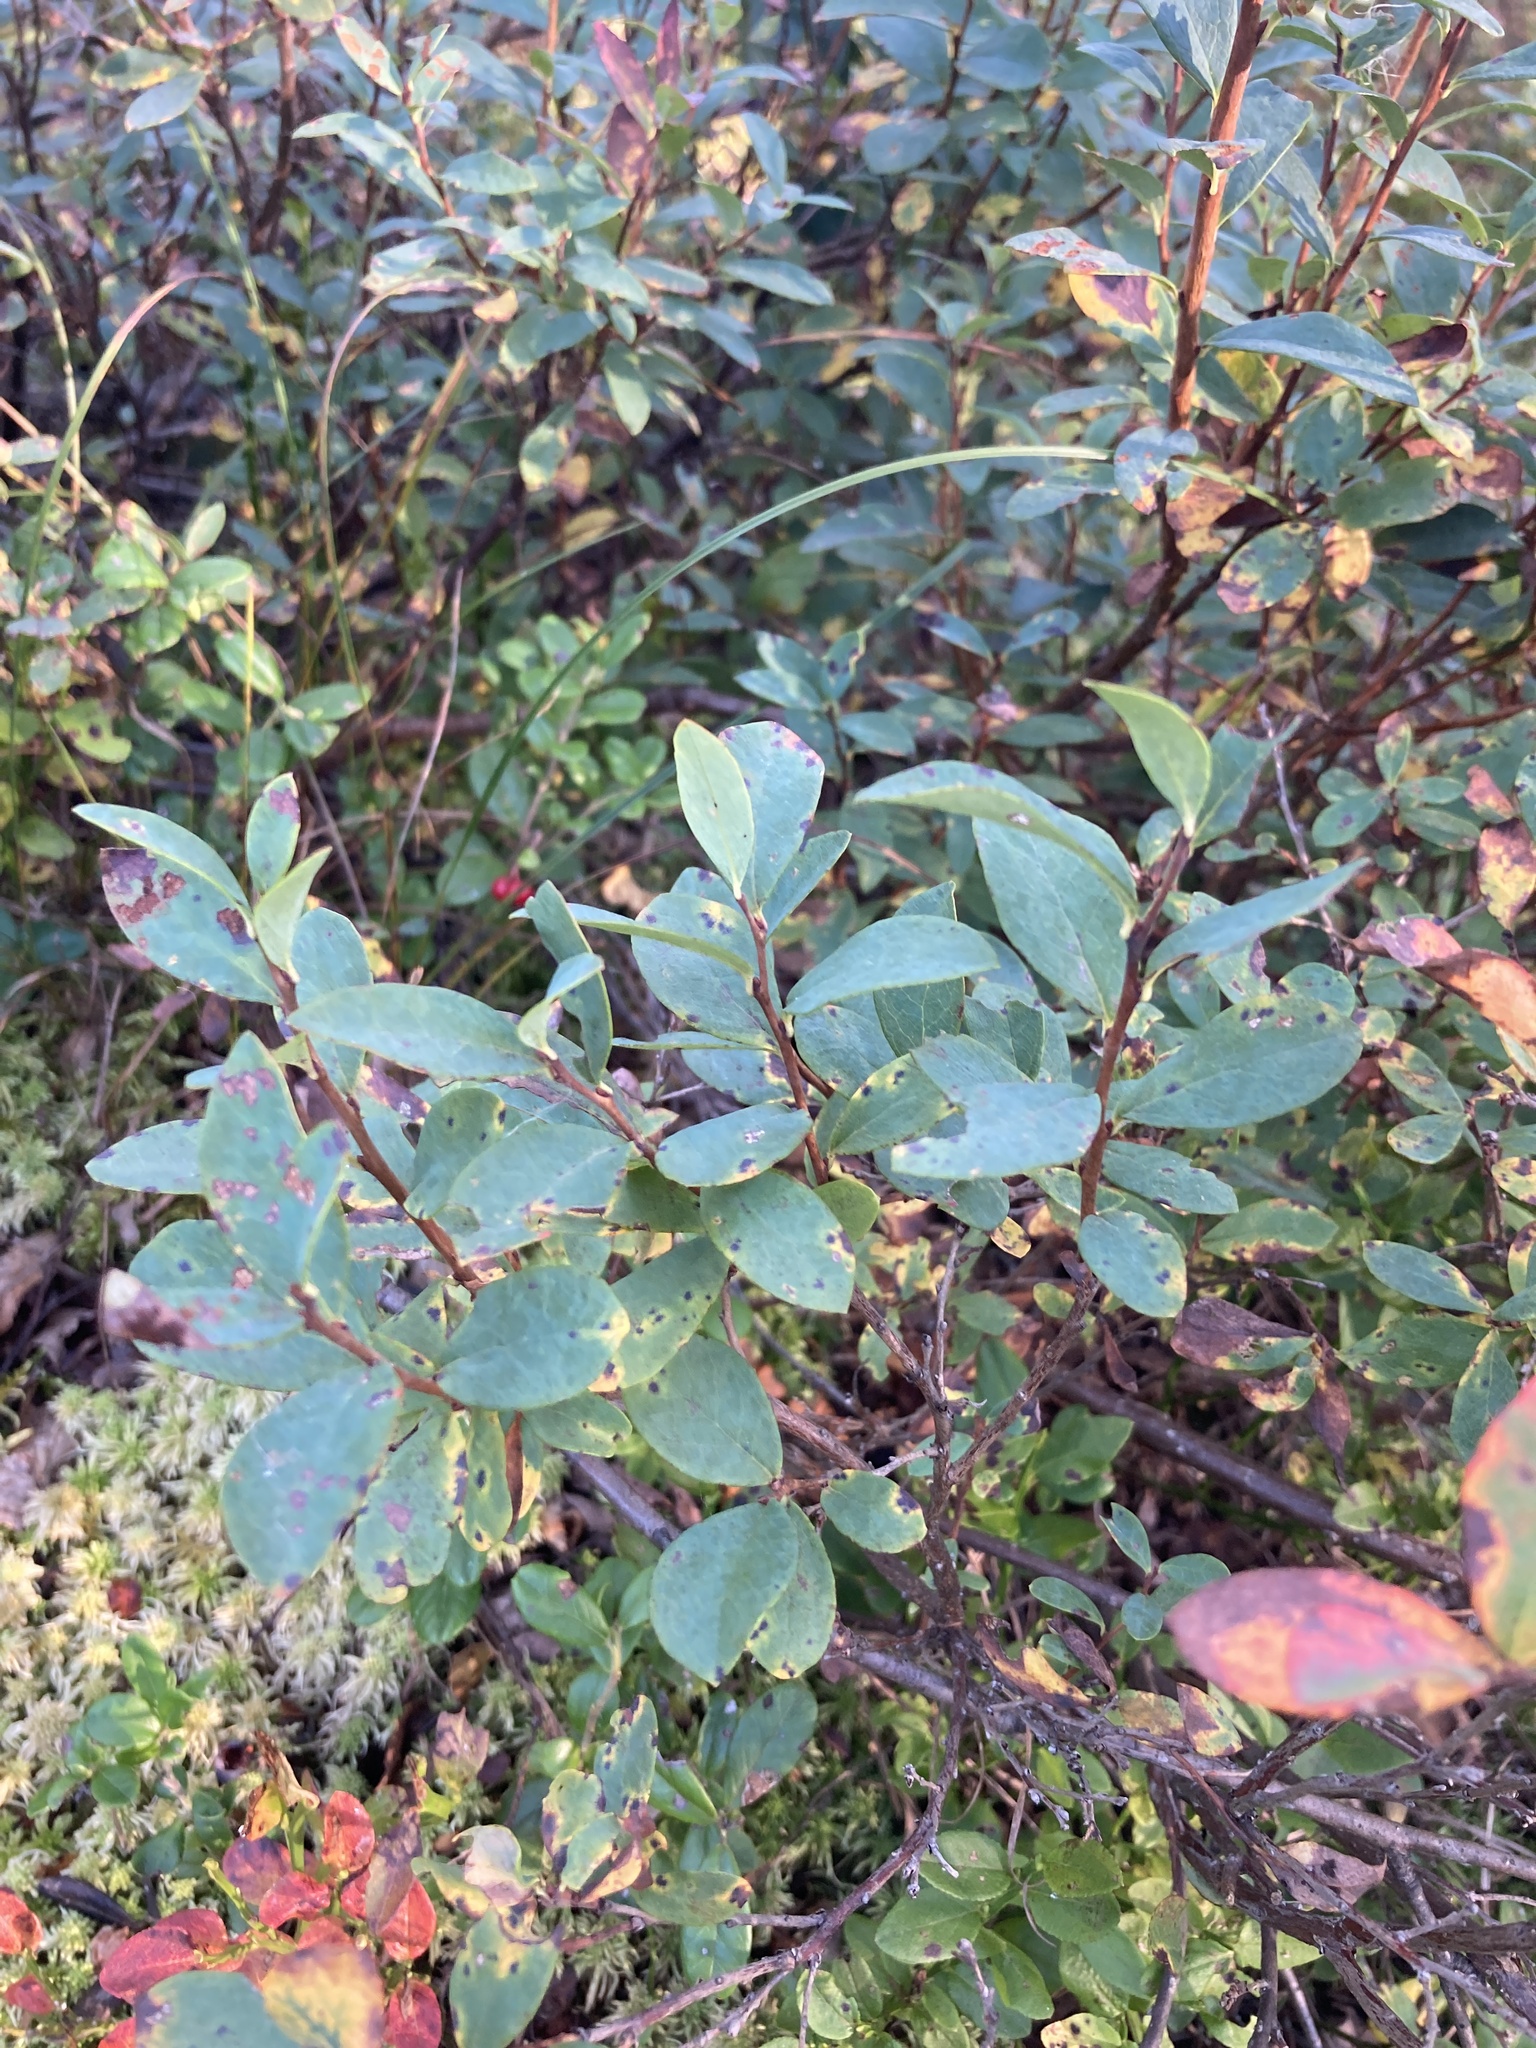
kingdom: Plantae
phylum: Tracheophyta
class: Magnoliopsida
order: Ericales
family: Ericaceae
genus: Vaccinium
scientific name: Vaccinium uliginosum
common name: Bog bilberry
